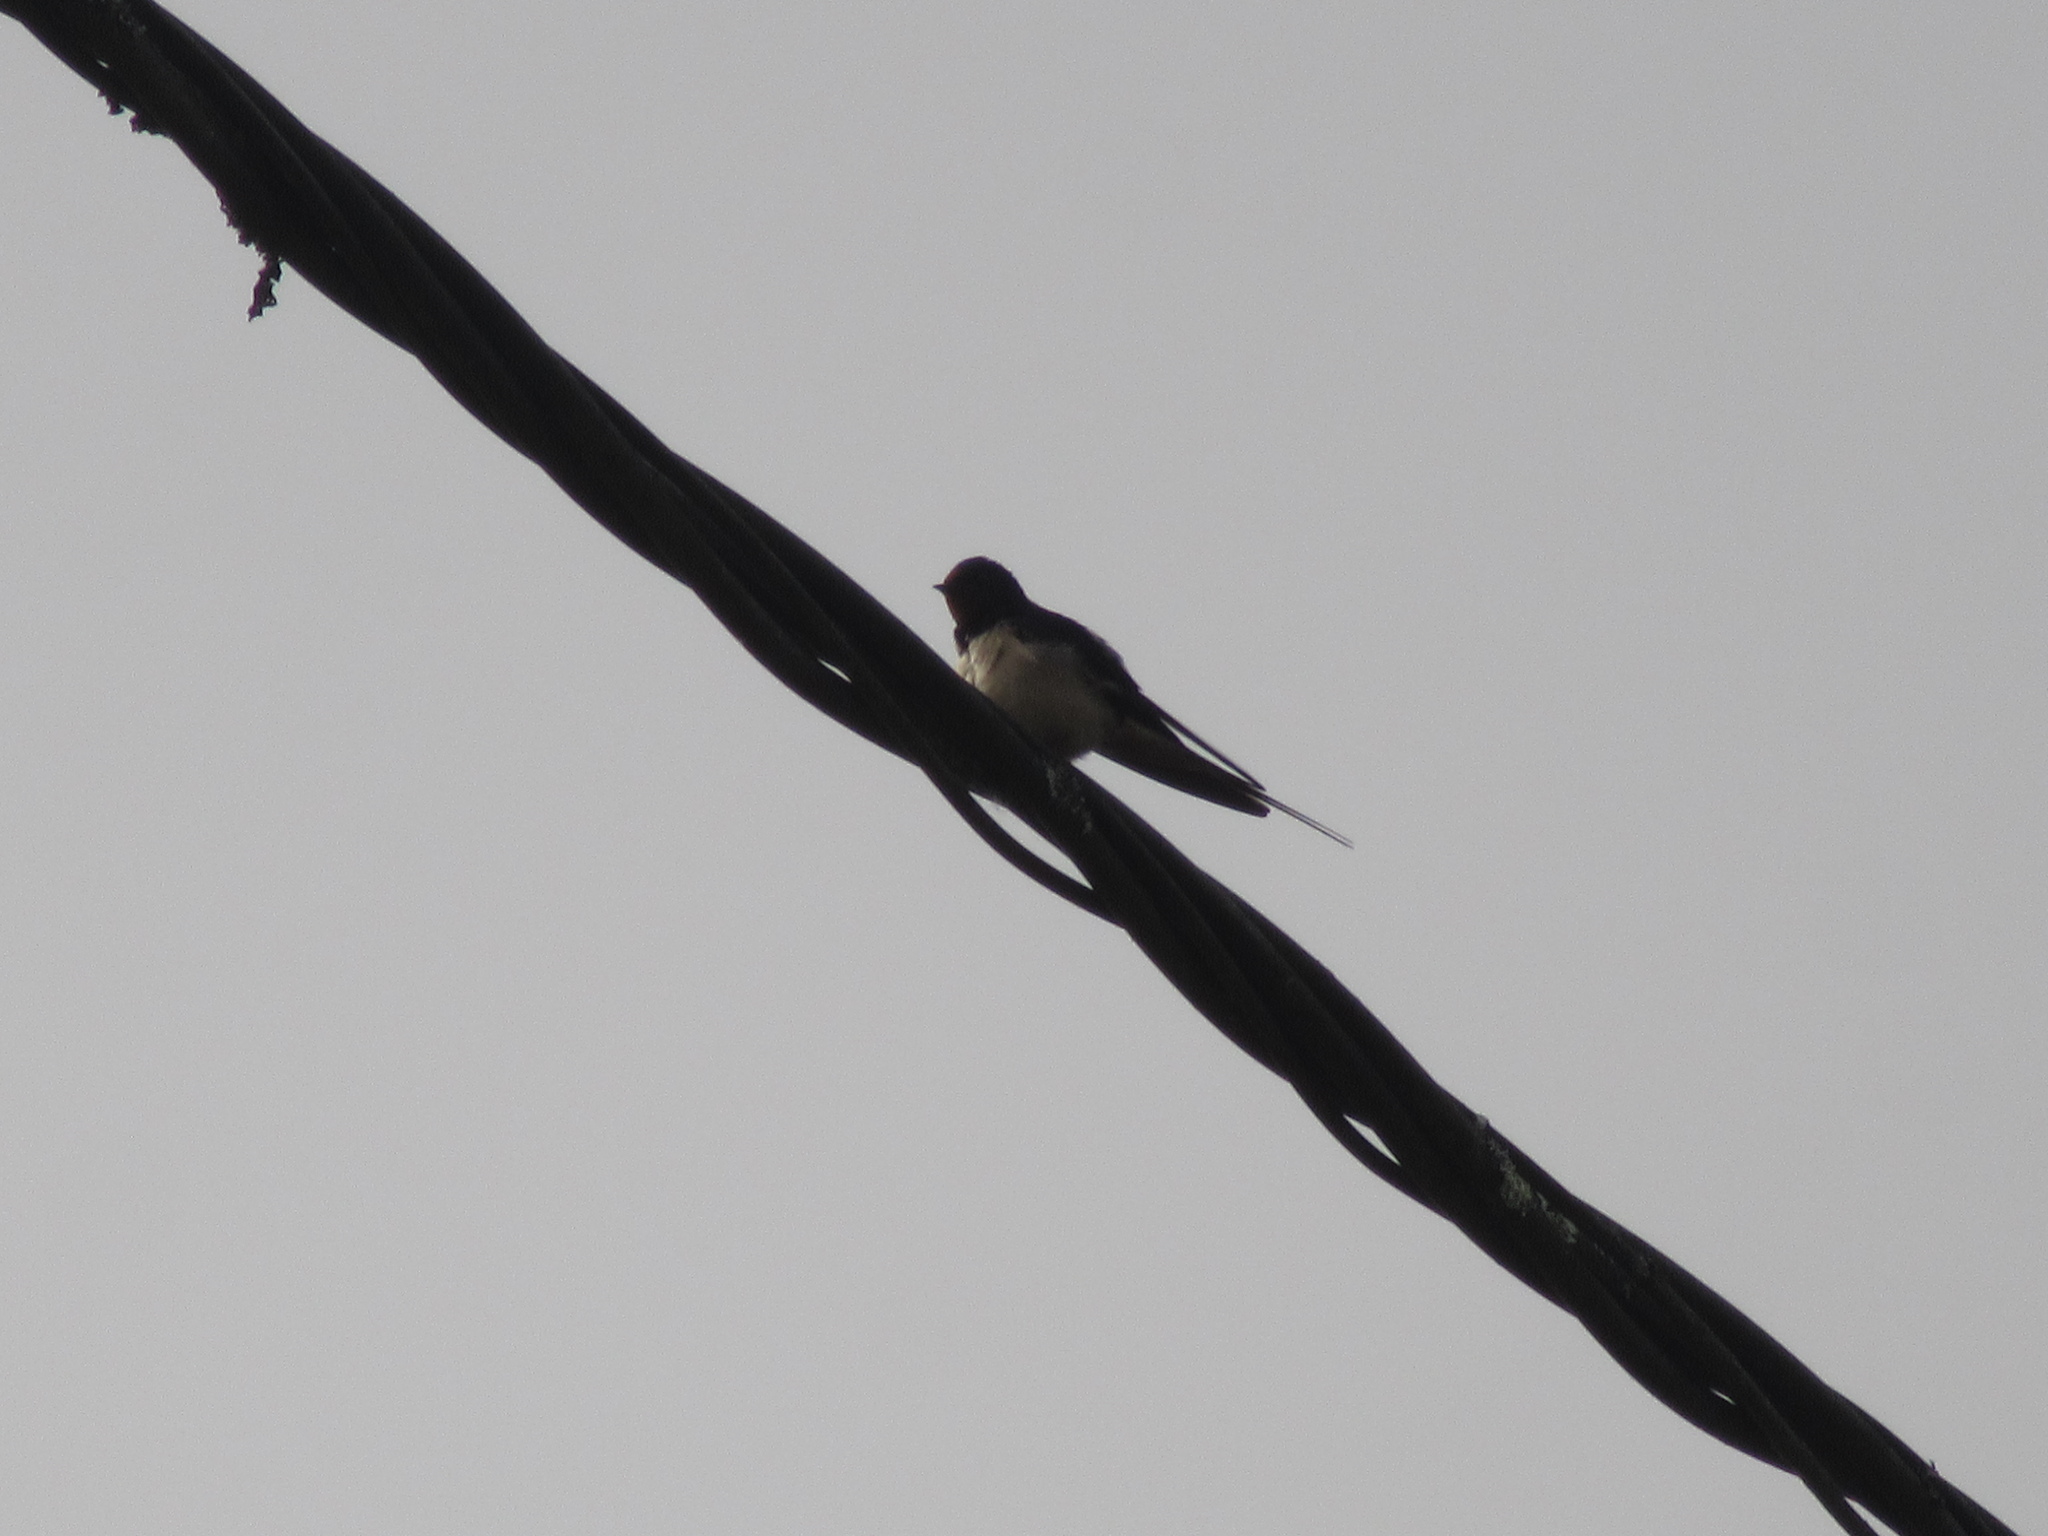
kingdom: Animalia
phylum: Chordata
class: Aves
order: Passeriformes
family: Hirundinidae
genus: Hirundo
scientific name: Hirundo rustica
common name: Barn swallow
